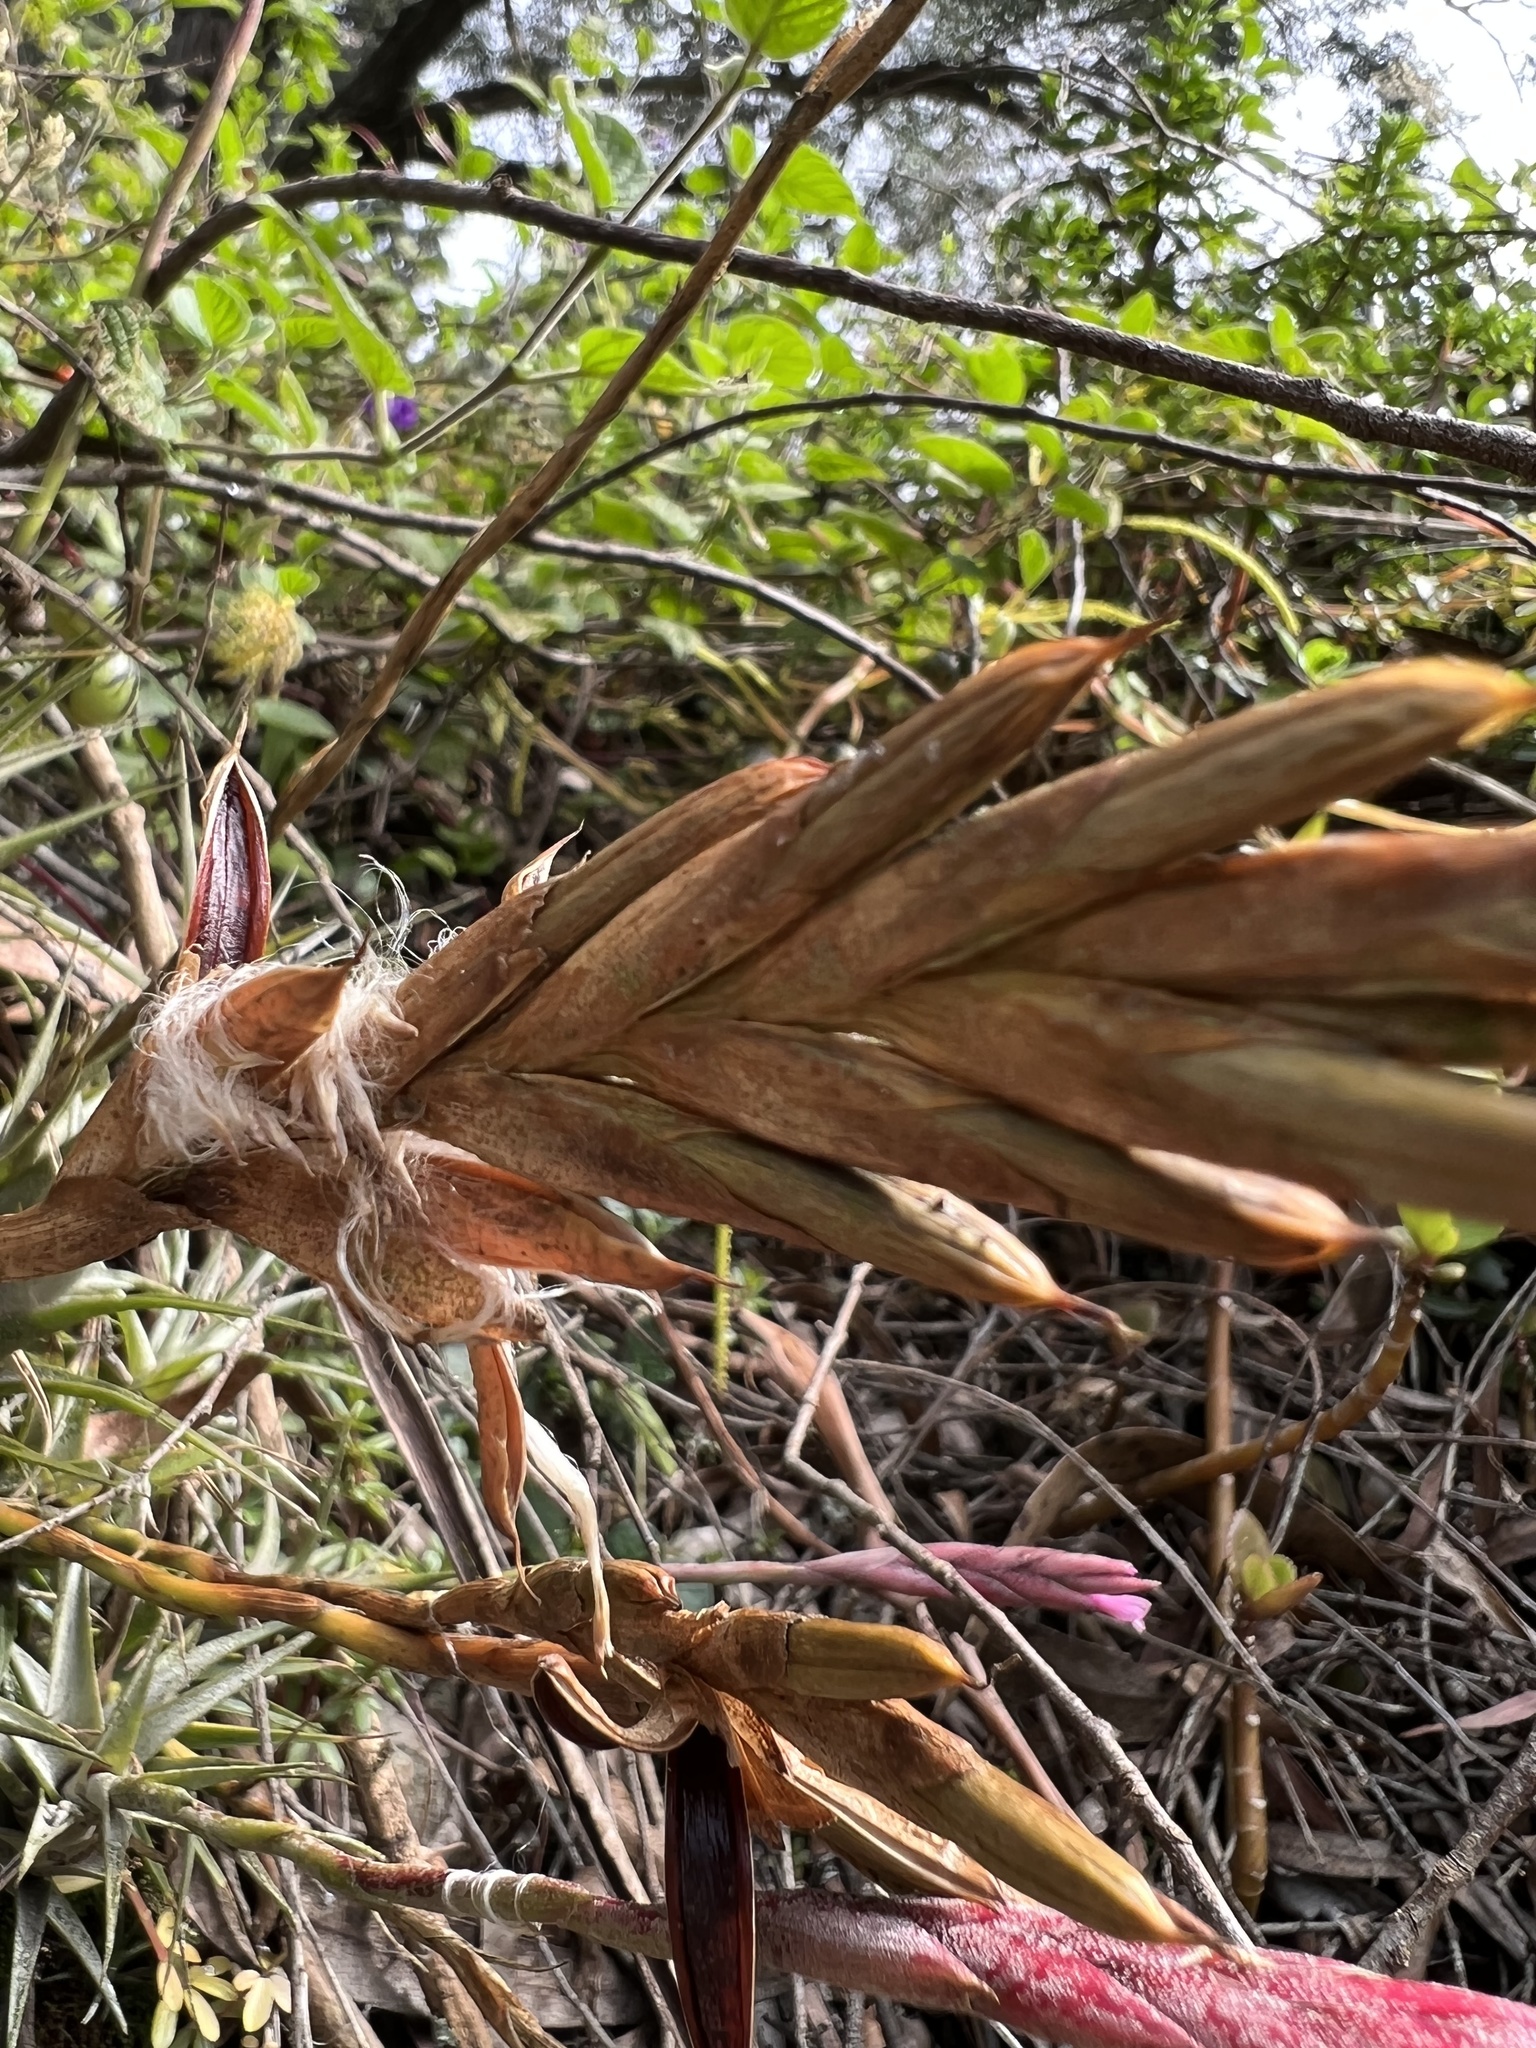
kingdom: Plantae
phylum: Tracheophyta
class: Liliopsida
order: Poales
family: Bromeliaceae
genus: Tillandsia
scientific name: Tillandsia incarnata
